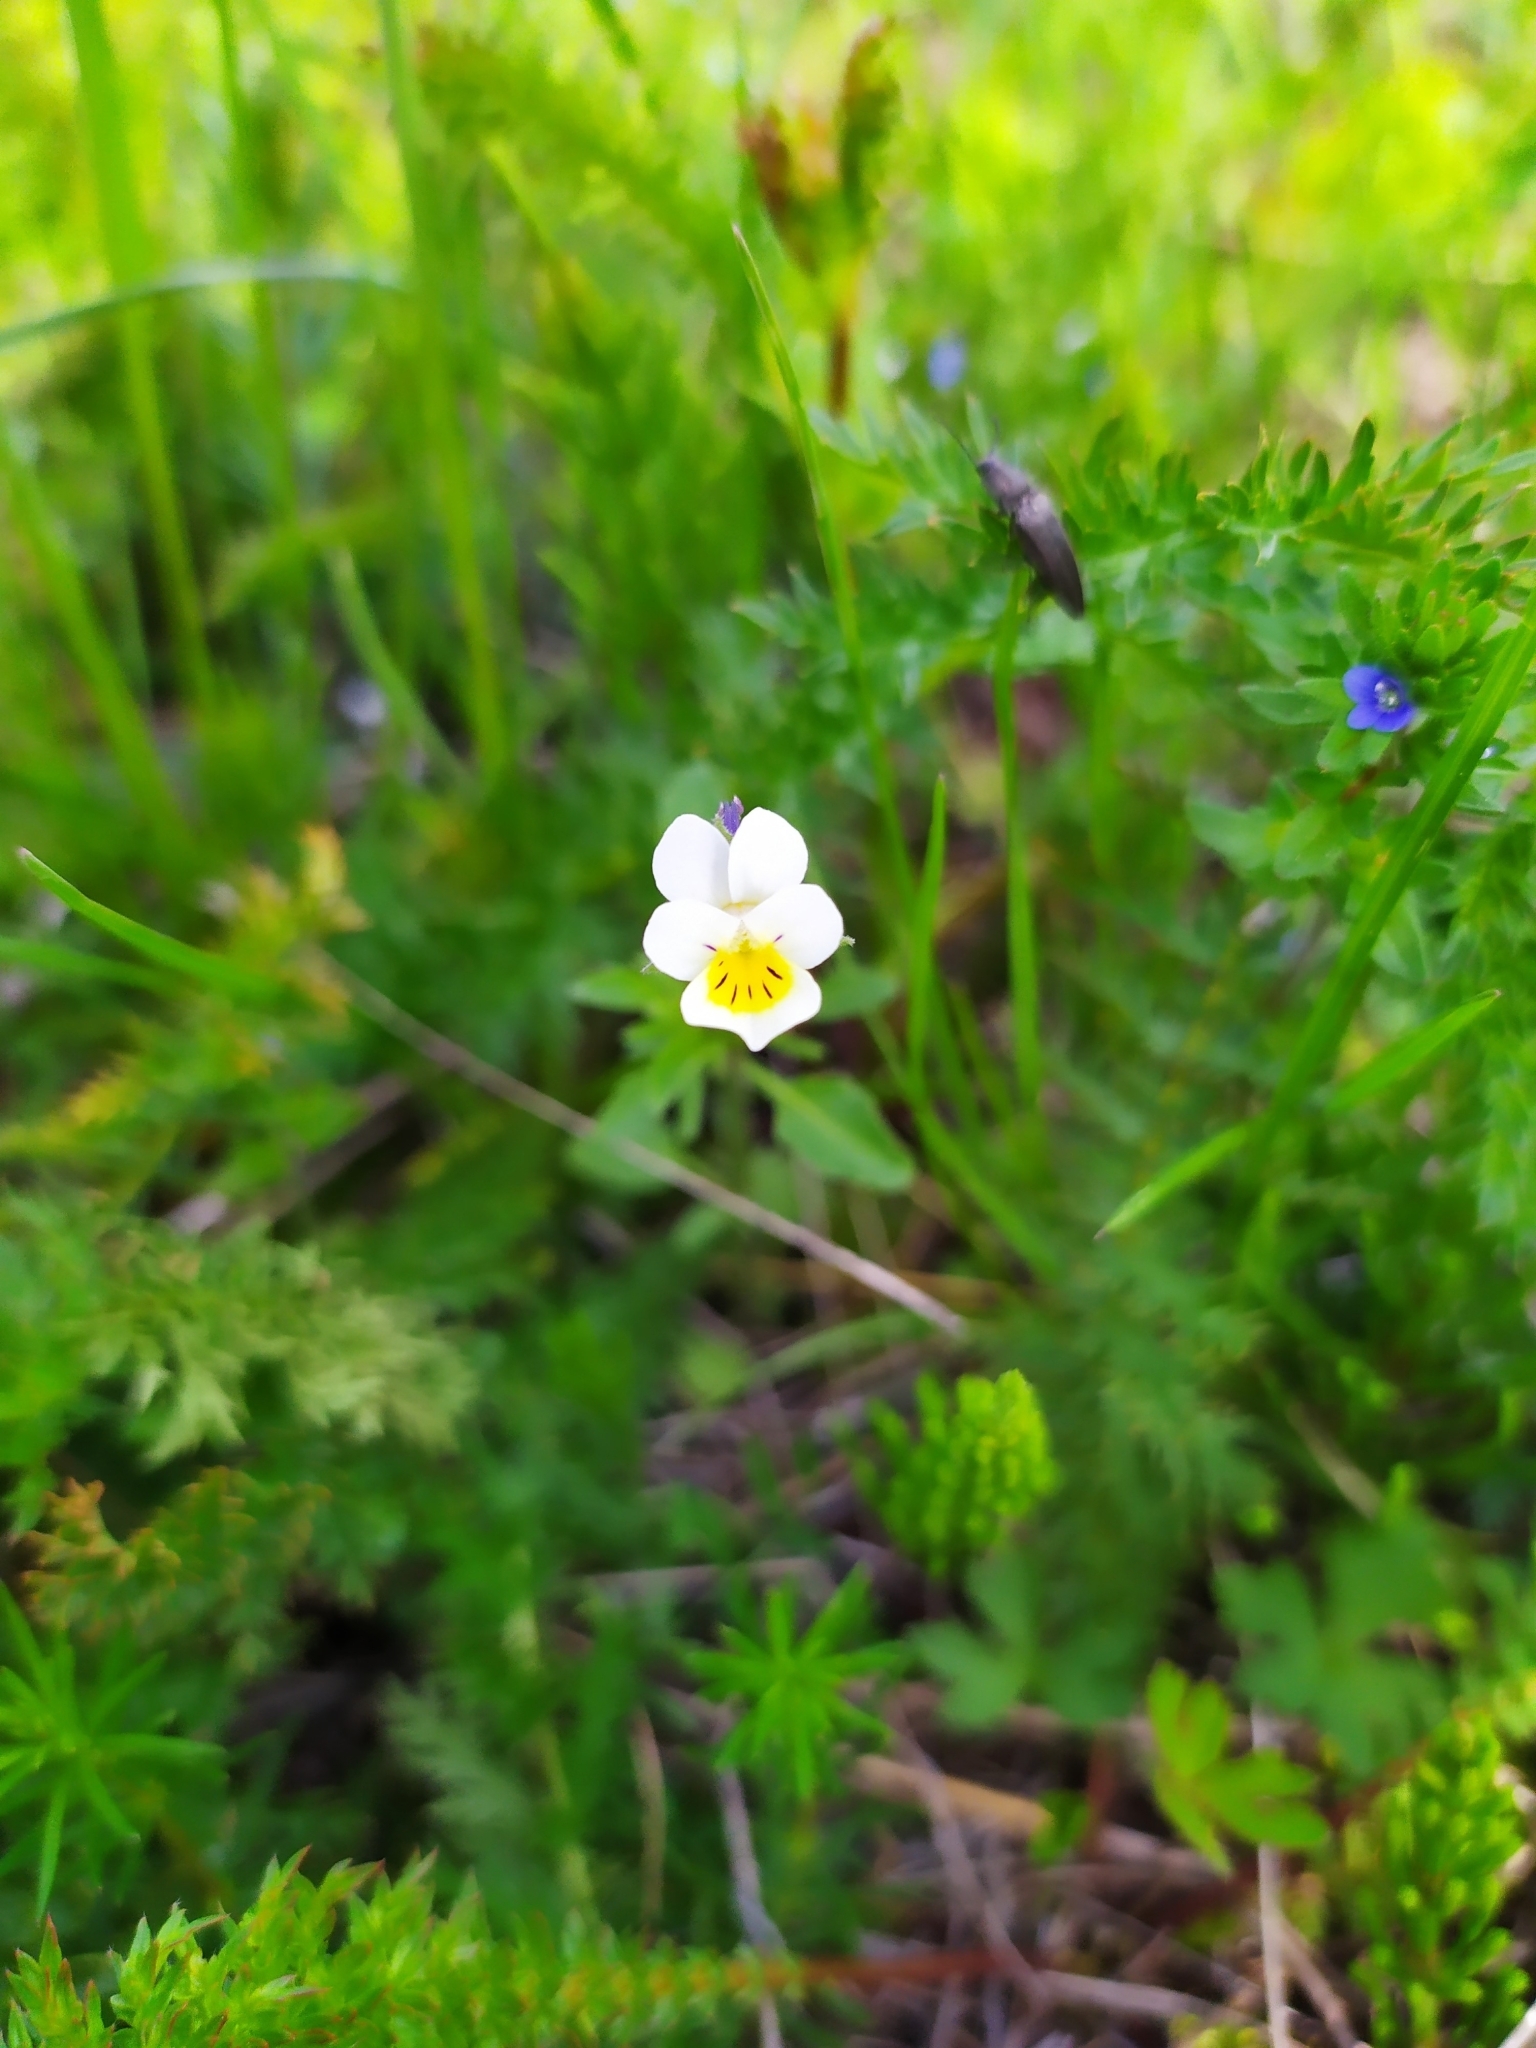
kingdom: Plantae
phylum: Tracheophyta
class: Magnoliopsida
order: Malpighiales
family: Violaceae
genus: Viola
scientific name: Viola arvensis
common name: Field pansy
